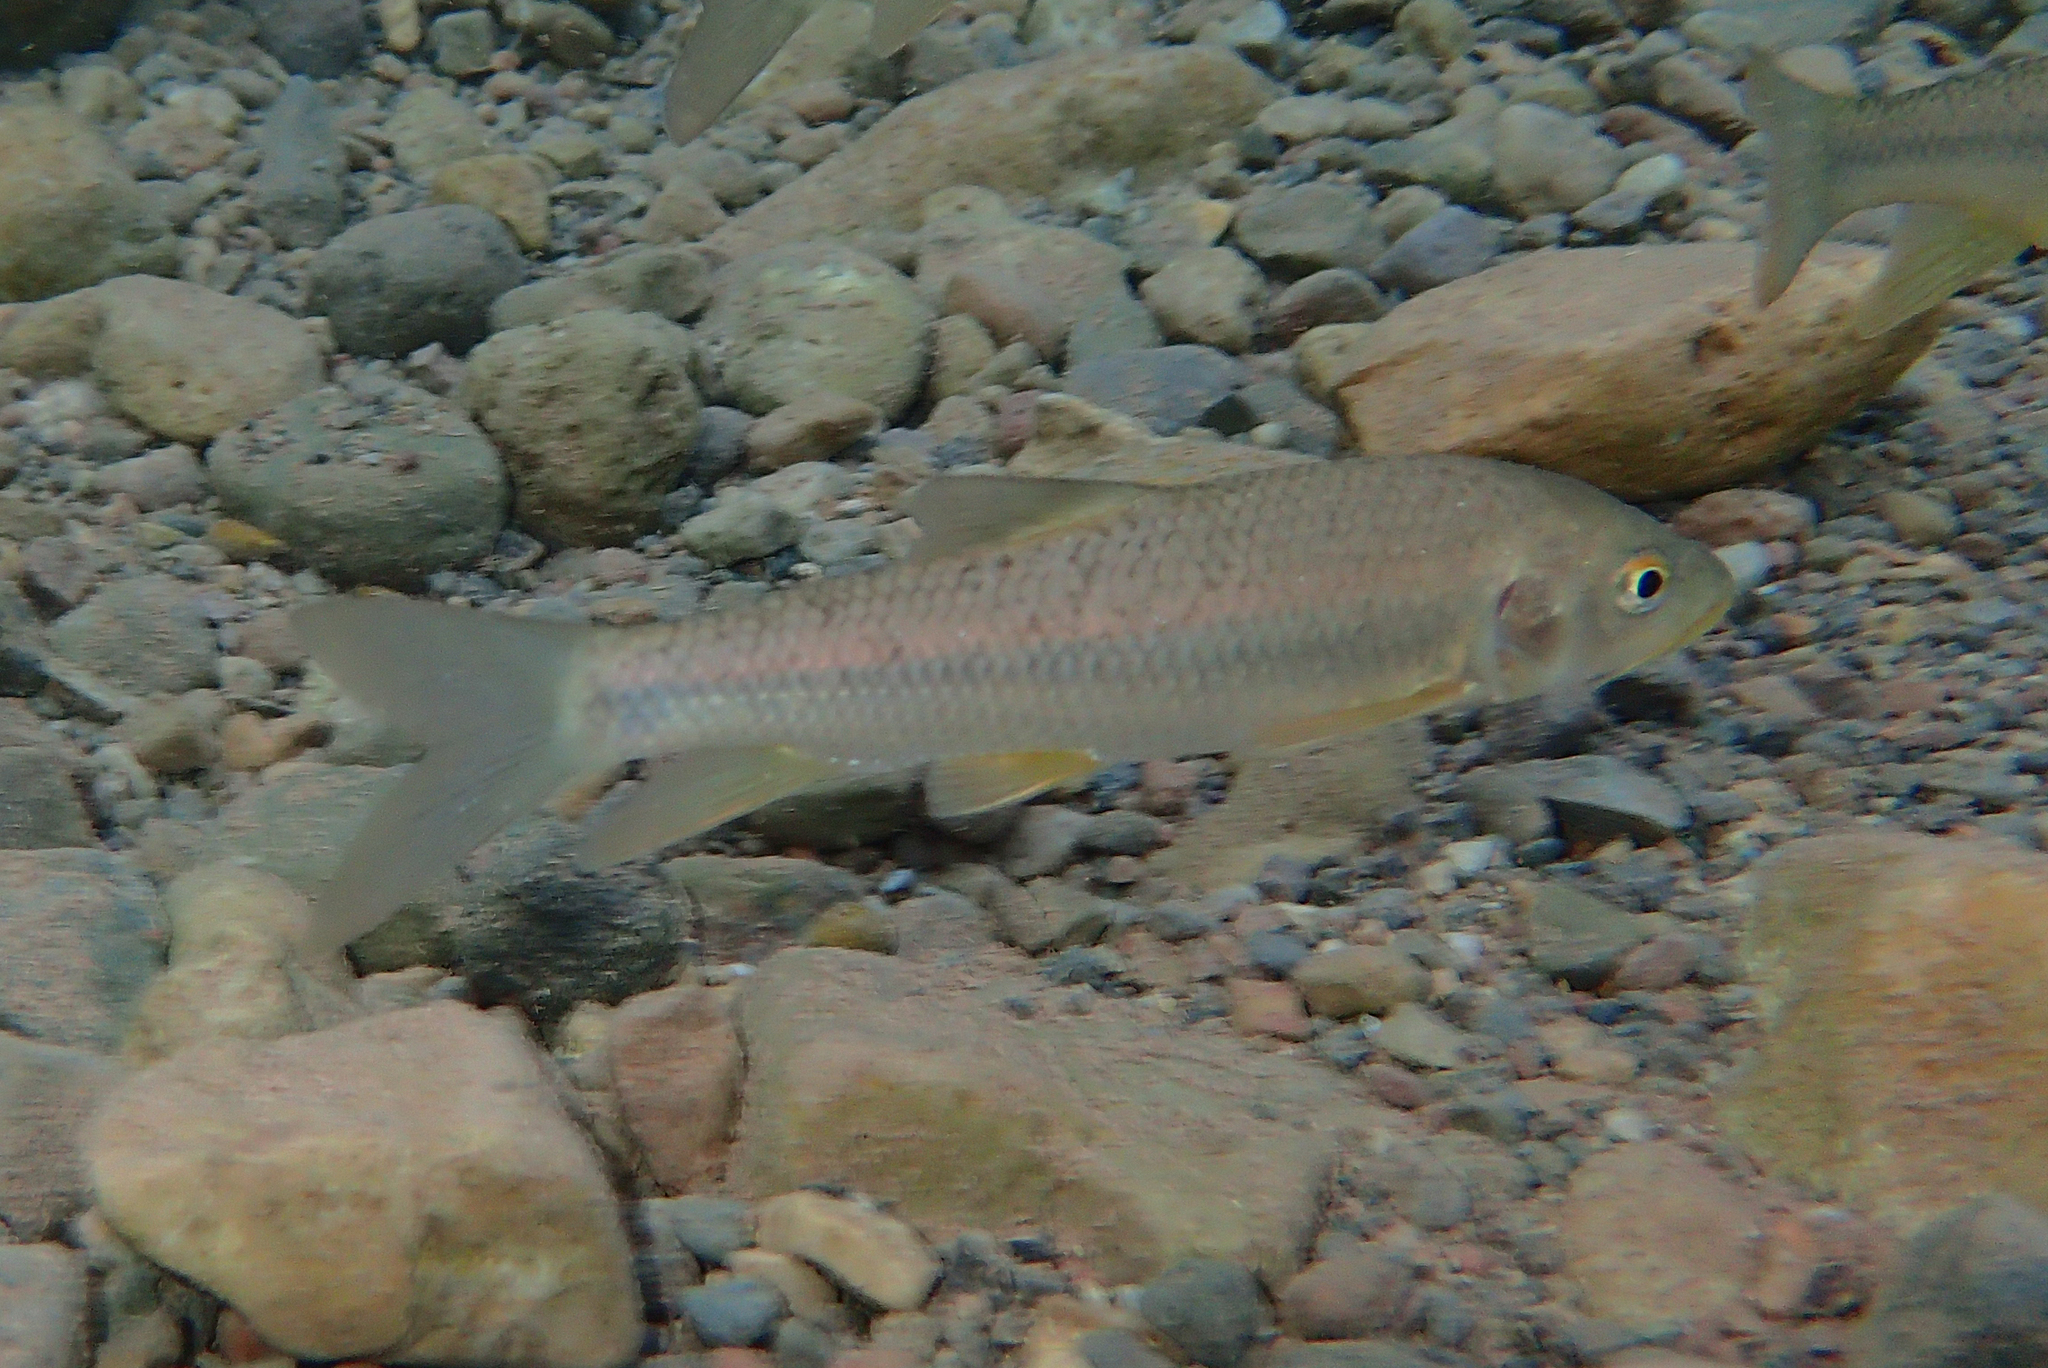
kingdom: Animalia
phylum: Chordata
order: Cypriniformes
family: Cyprinidae
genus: Carasobarbus
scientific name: Carasobarbus fritschii
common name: Striped himri
